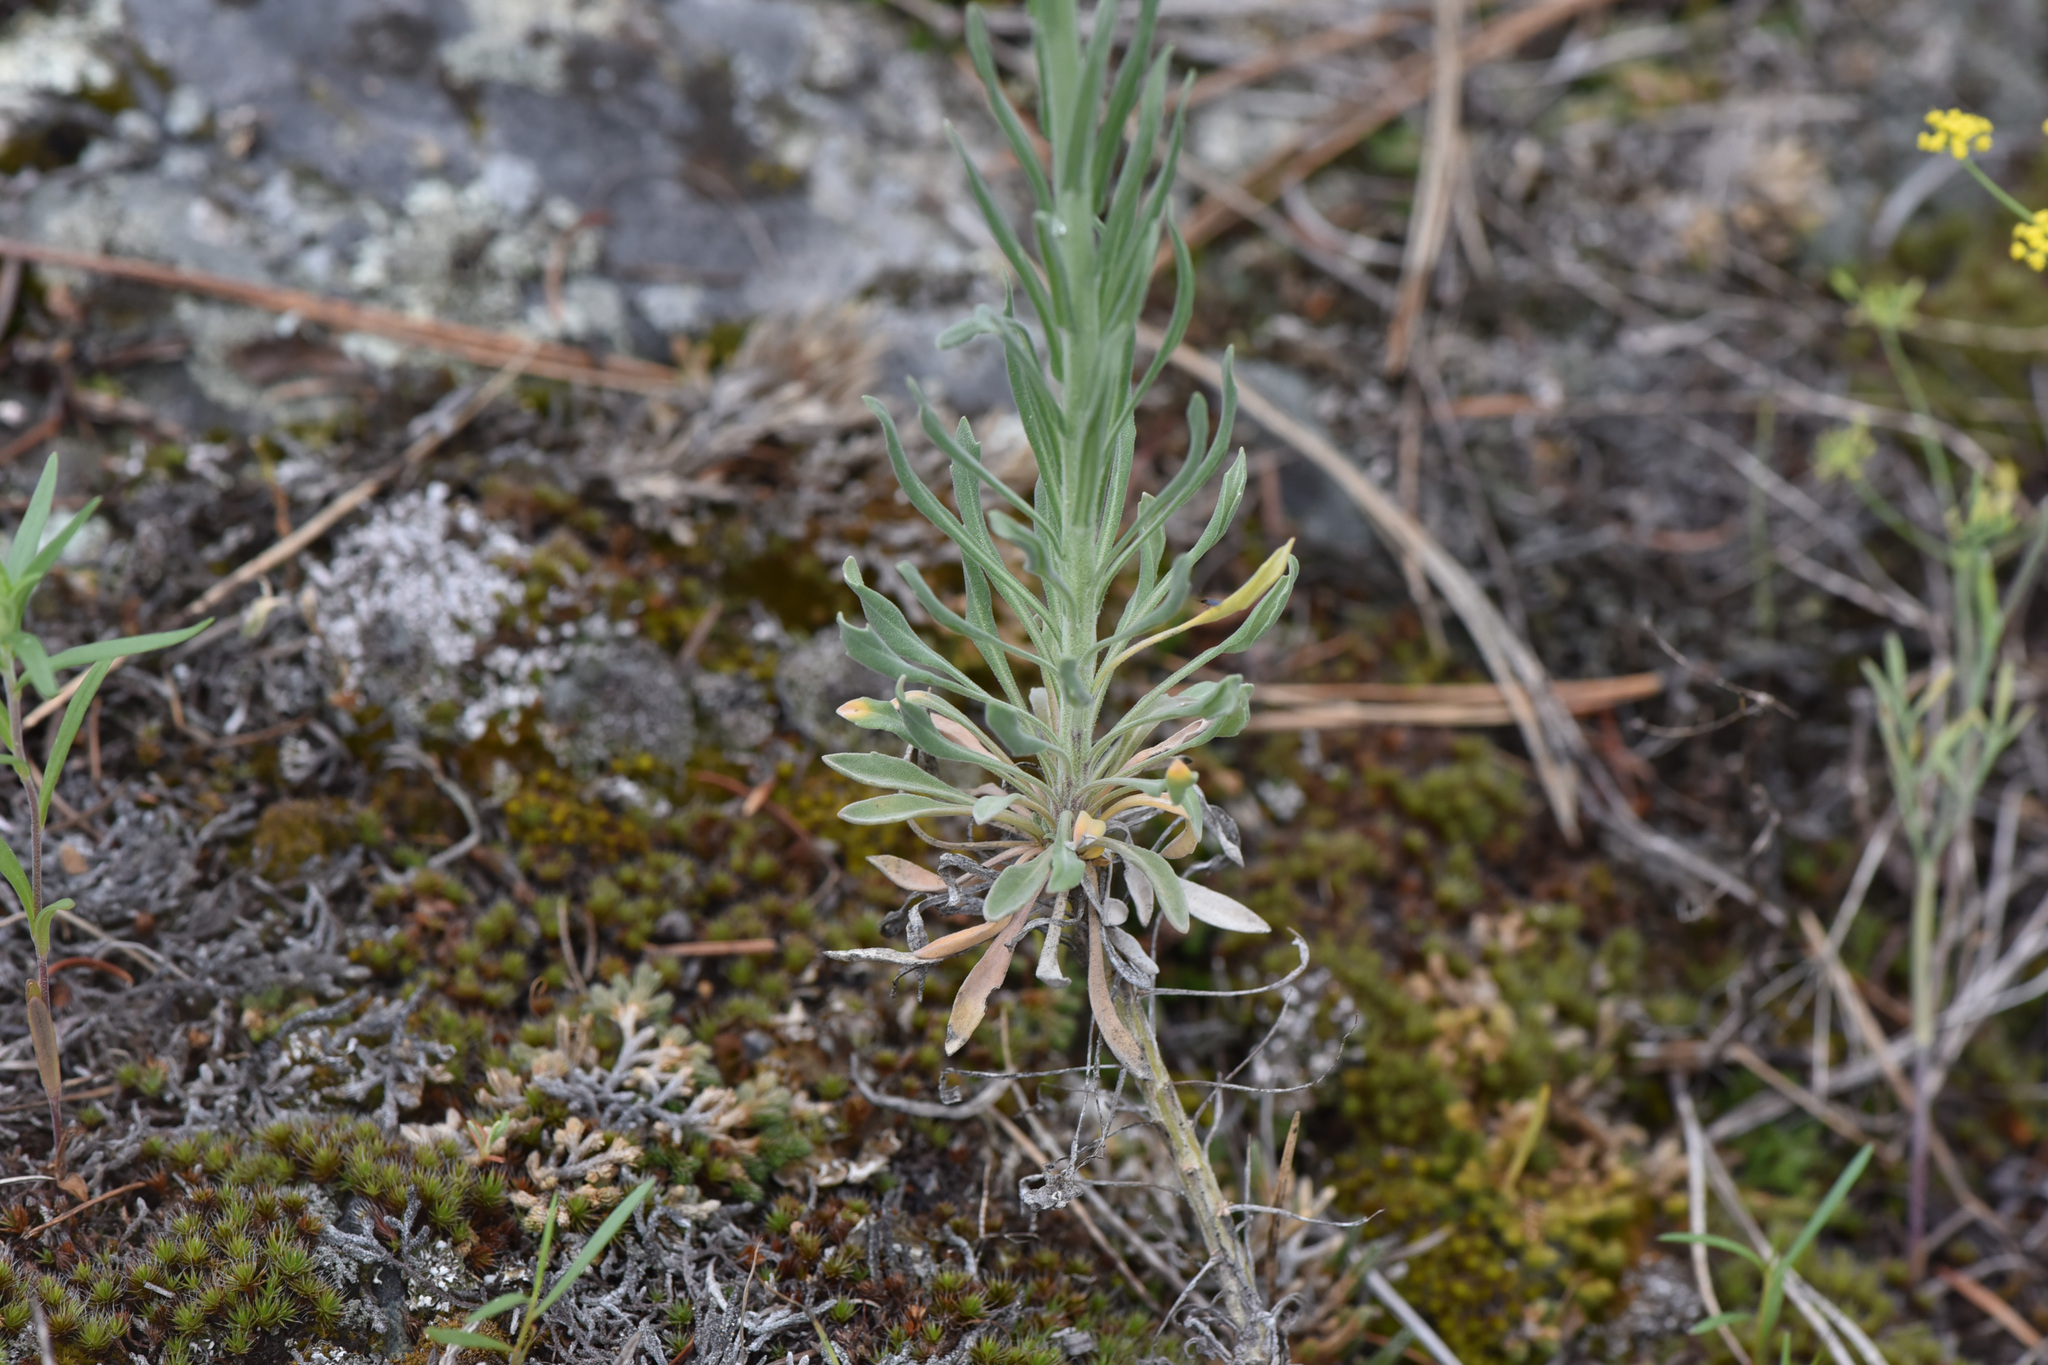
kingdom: Plantae
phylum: Tracheophyta
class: Magnoliopsida
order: Brassicales
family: Brassicaceae
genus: Boechera
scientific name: Boechera retrofracta
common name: Dangling suncress
